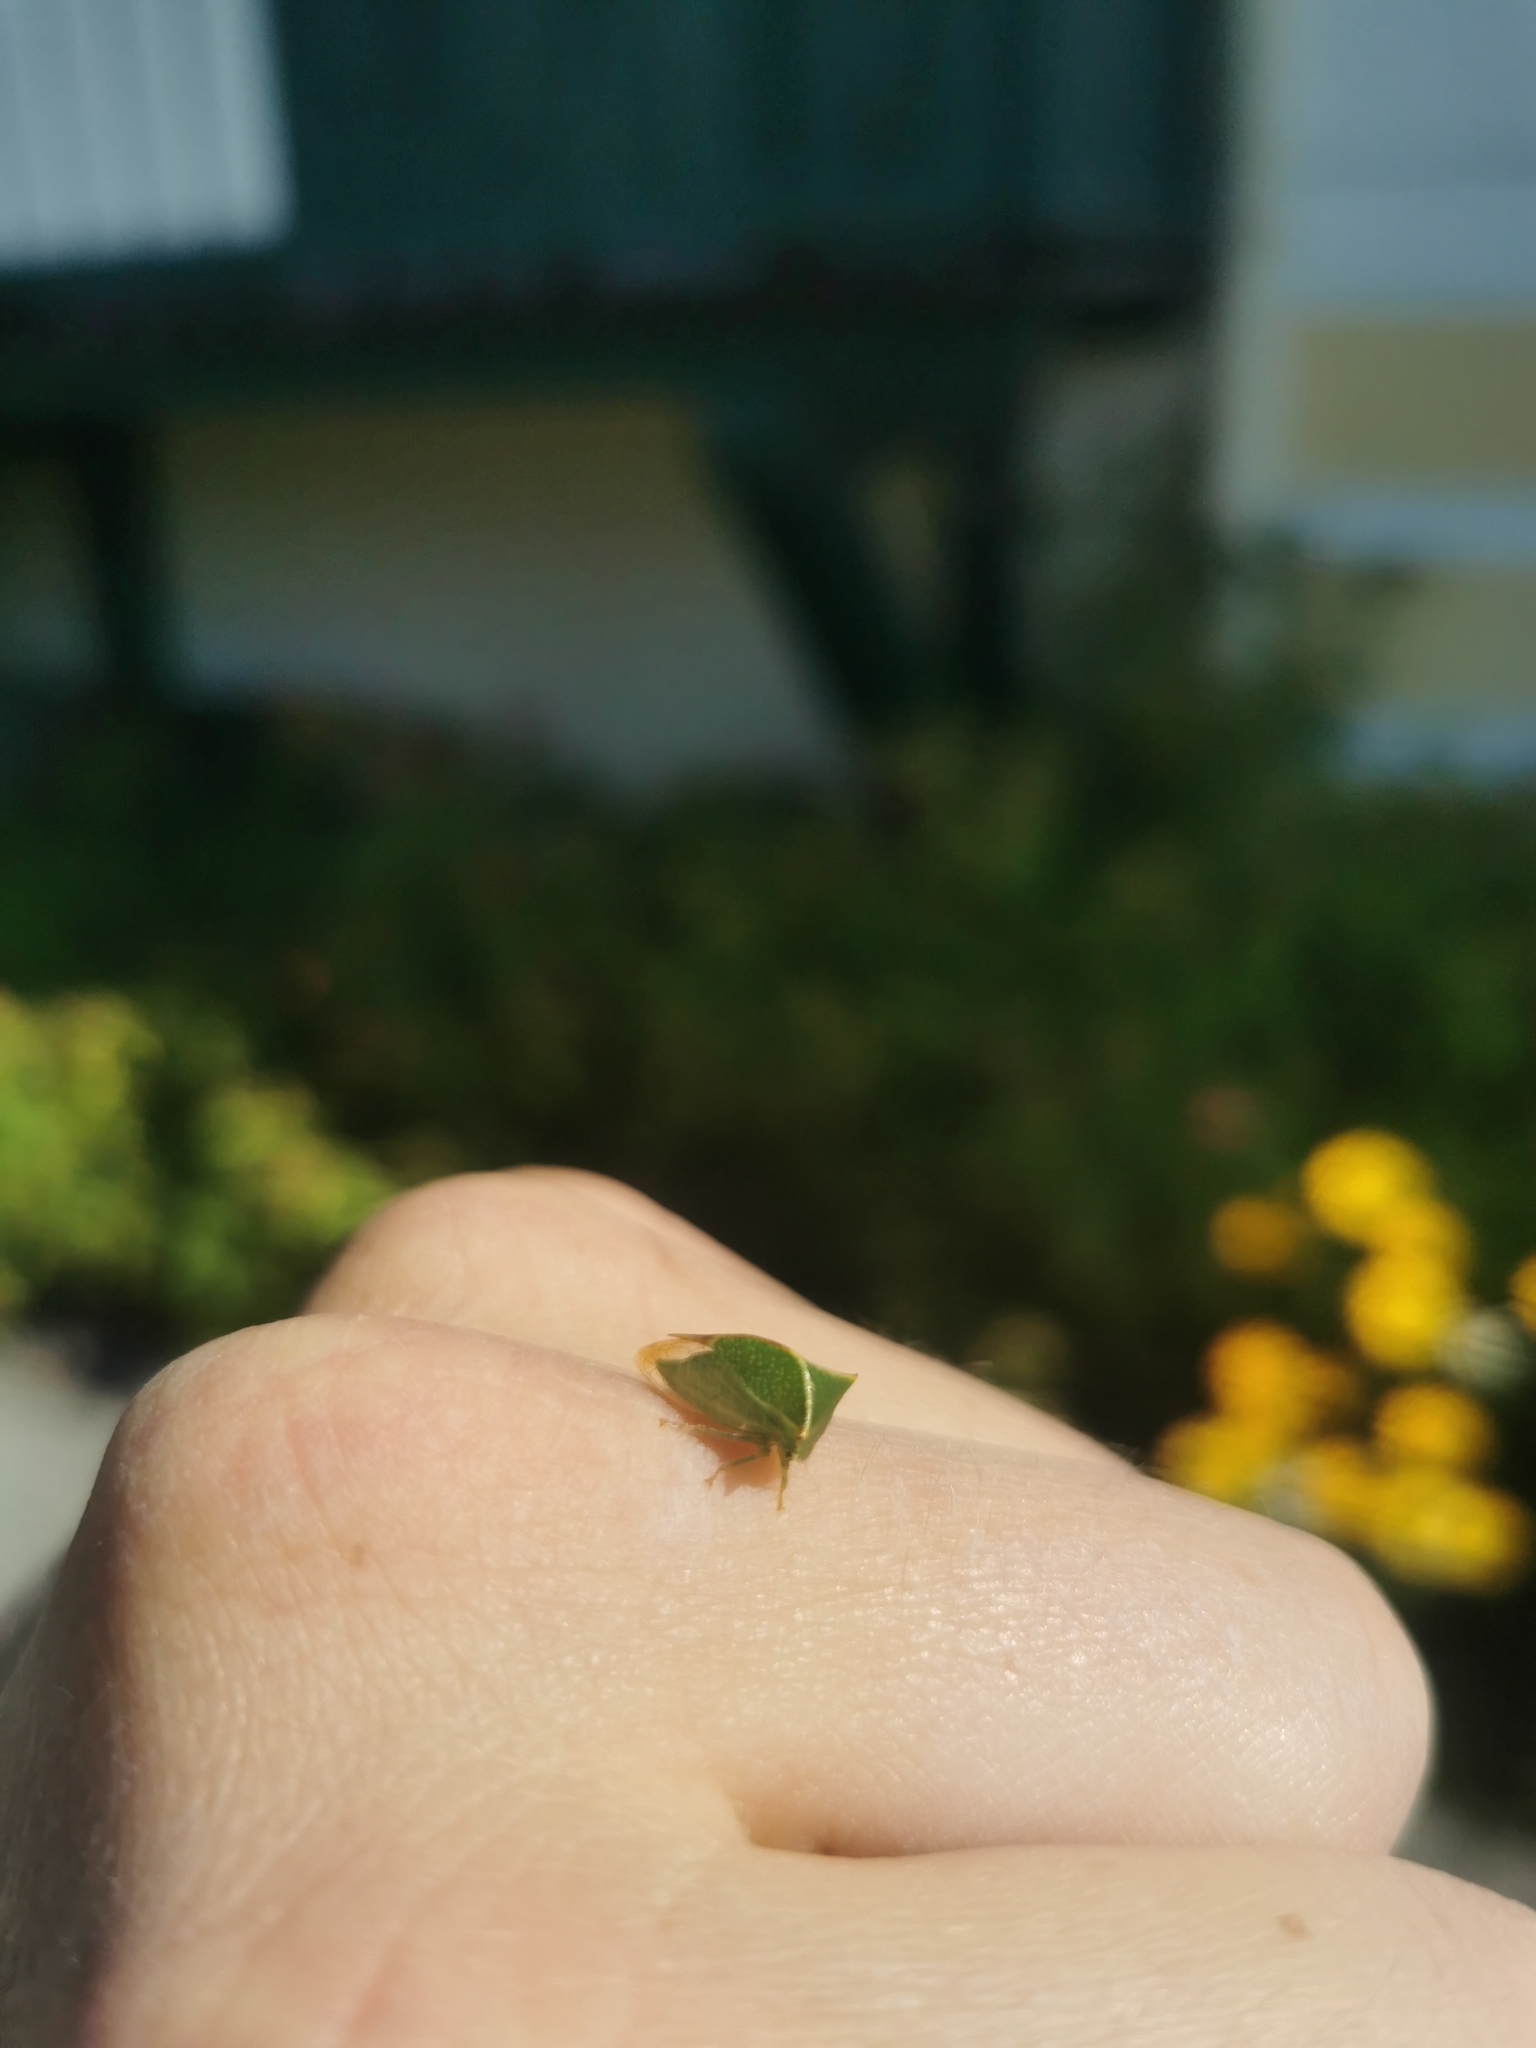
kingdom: Animalia
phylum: Arthropoda
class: Insecta
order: Hemiptera
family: Membracidae
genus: Stictocephala
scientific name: Stictocephala bisonia
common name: American buffalo treehopper
